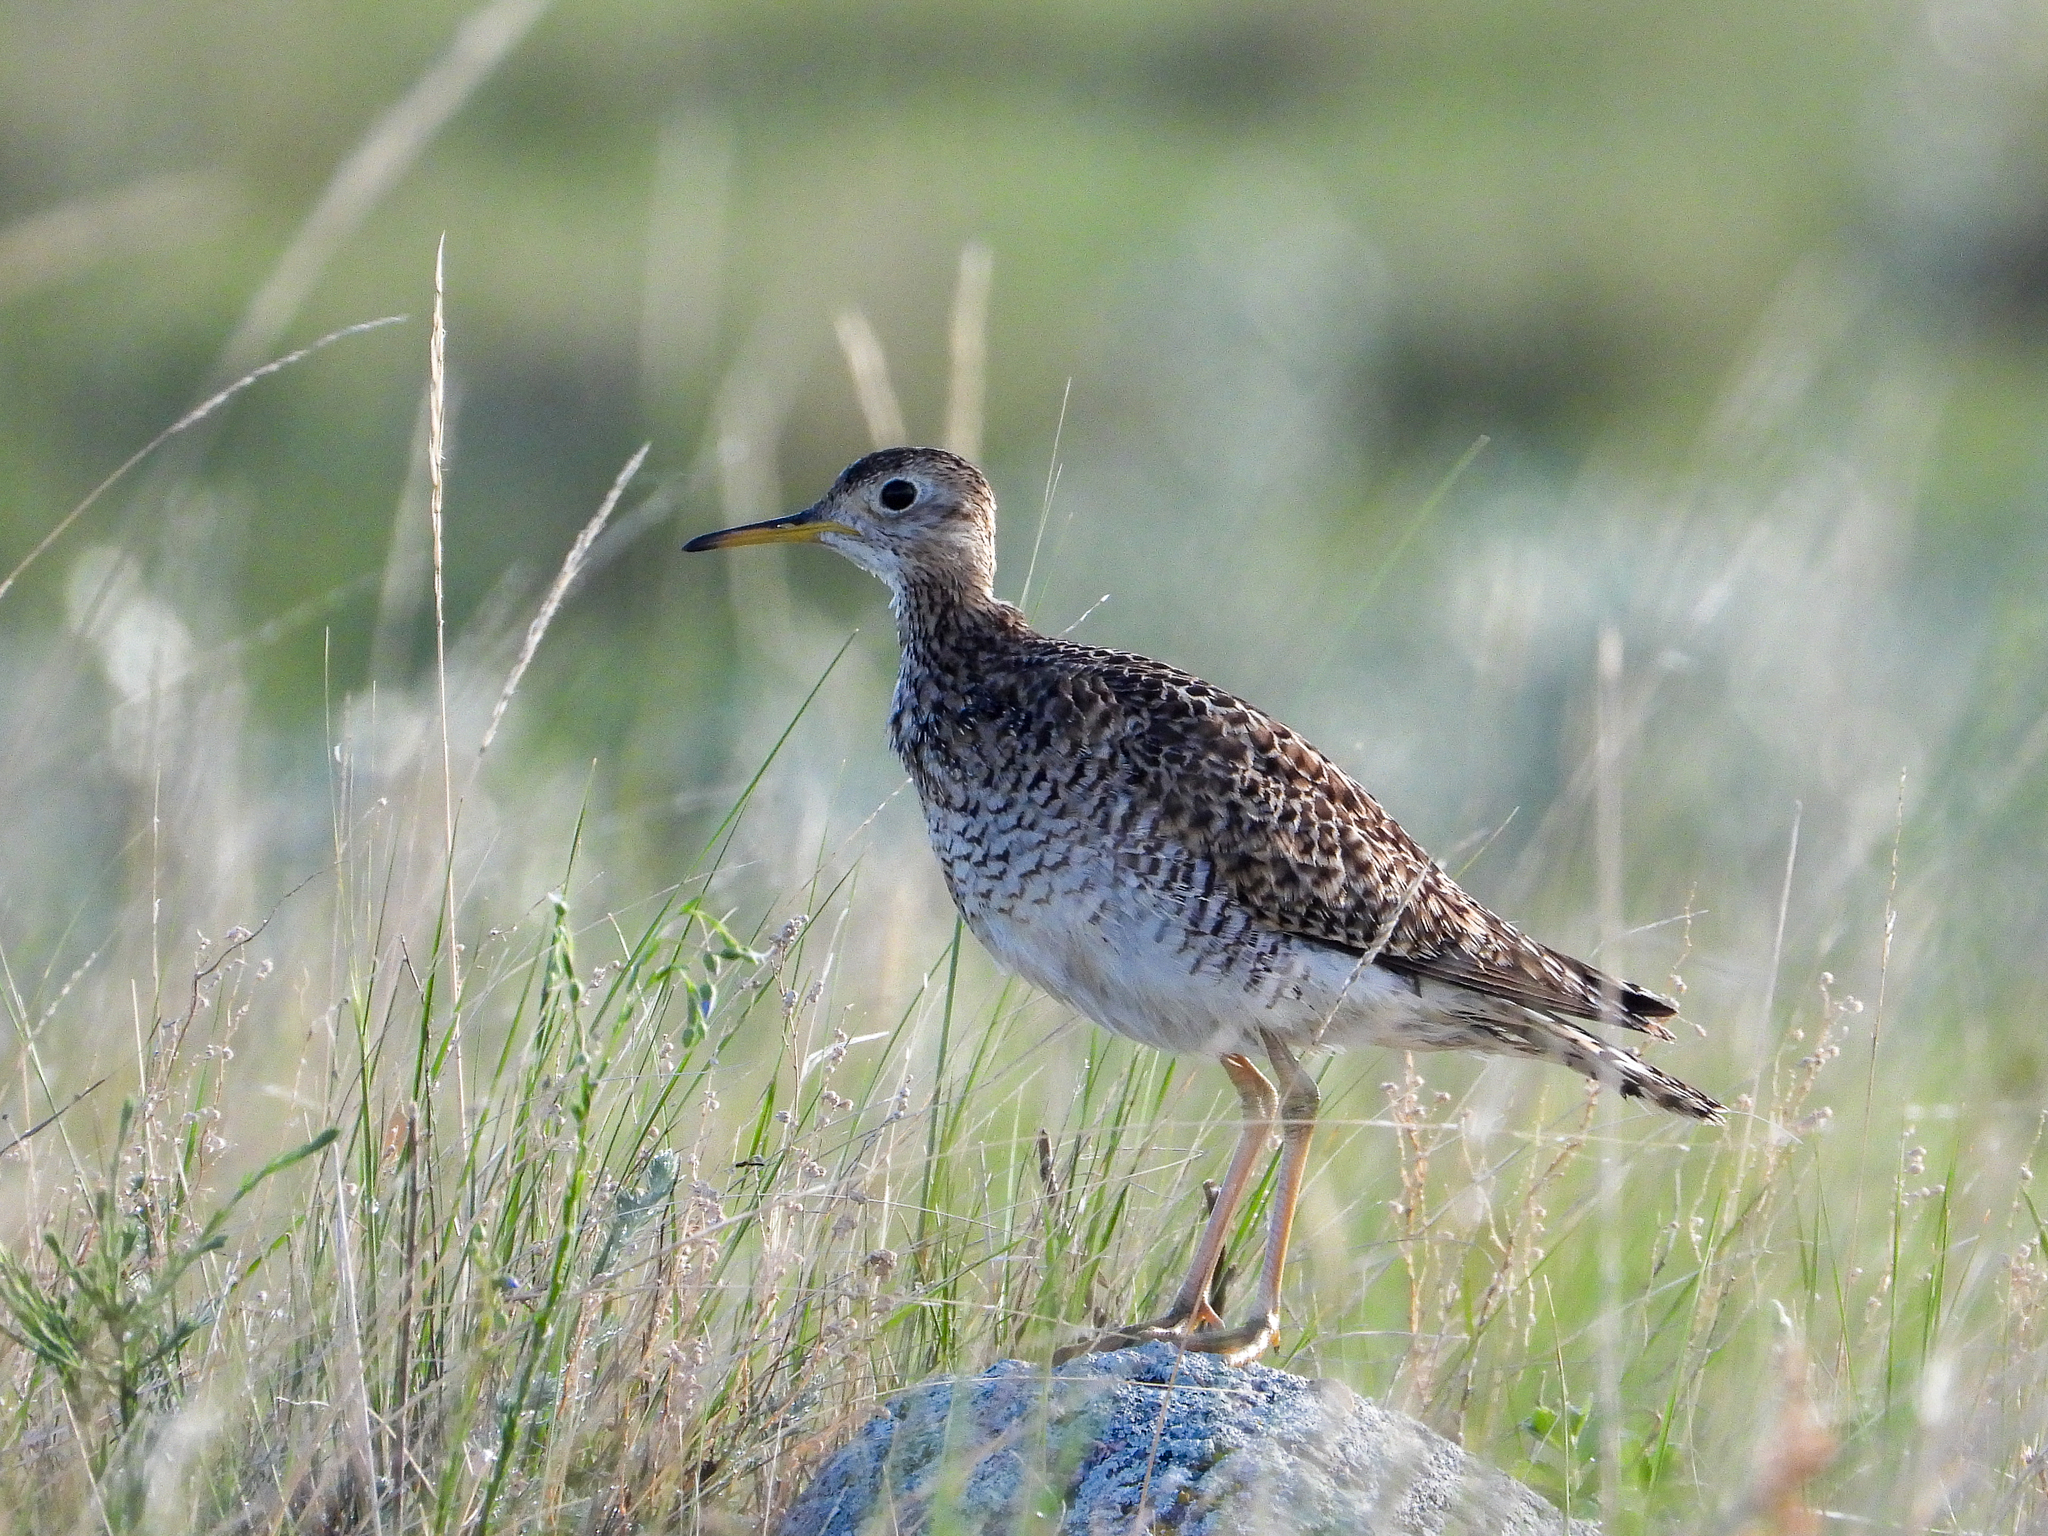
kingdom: Animalia
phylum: Chordata
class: Aves
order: Charadriiformes
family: Scolopacidae
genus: Bartramia
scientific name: Bartramia longicauda
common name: Upland sandpiper
